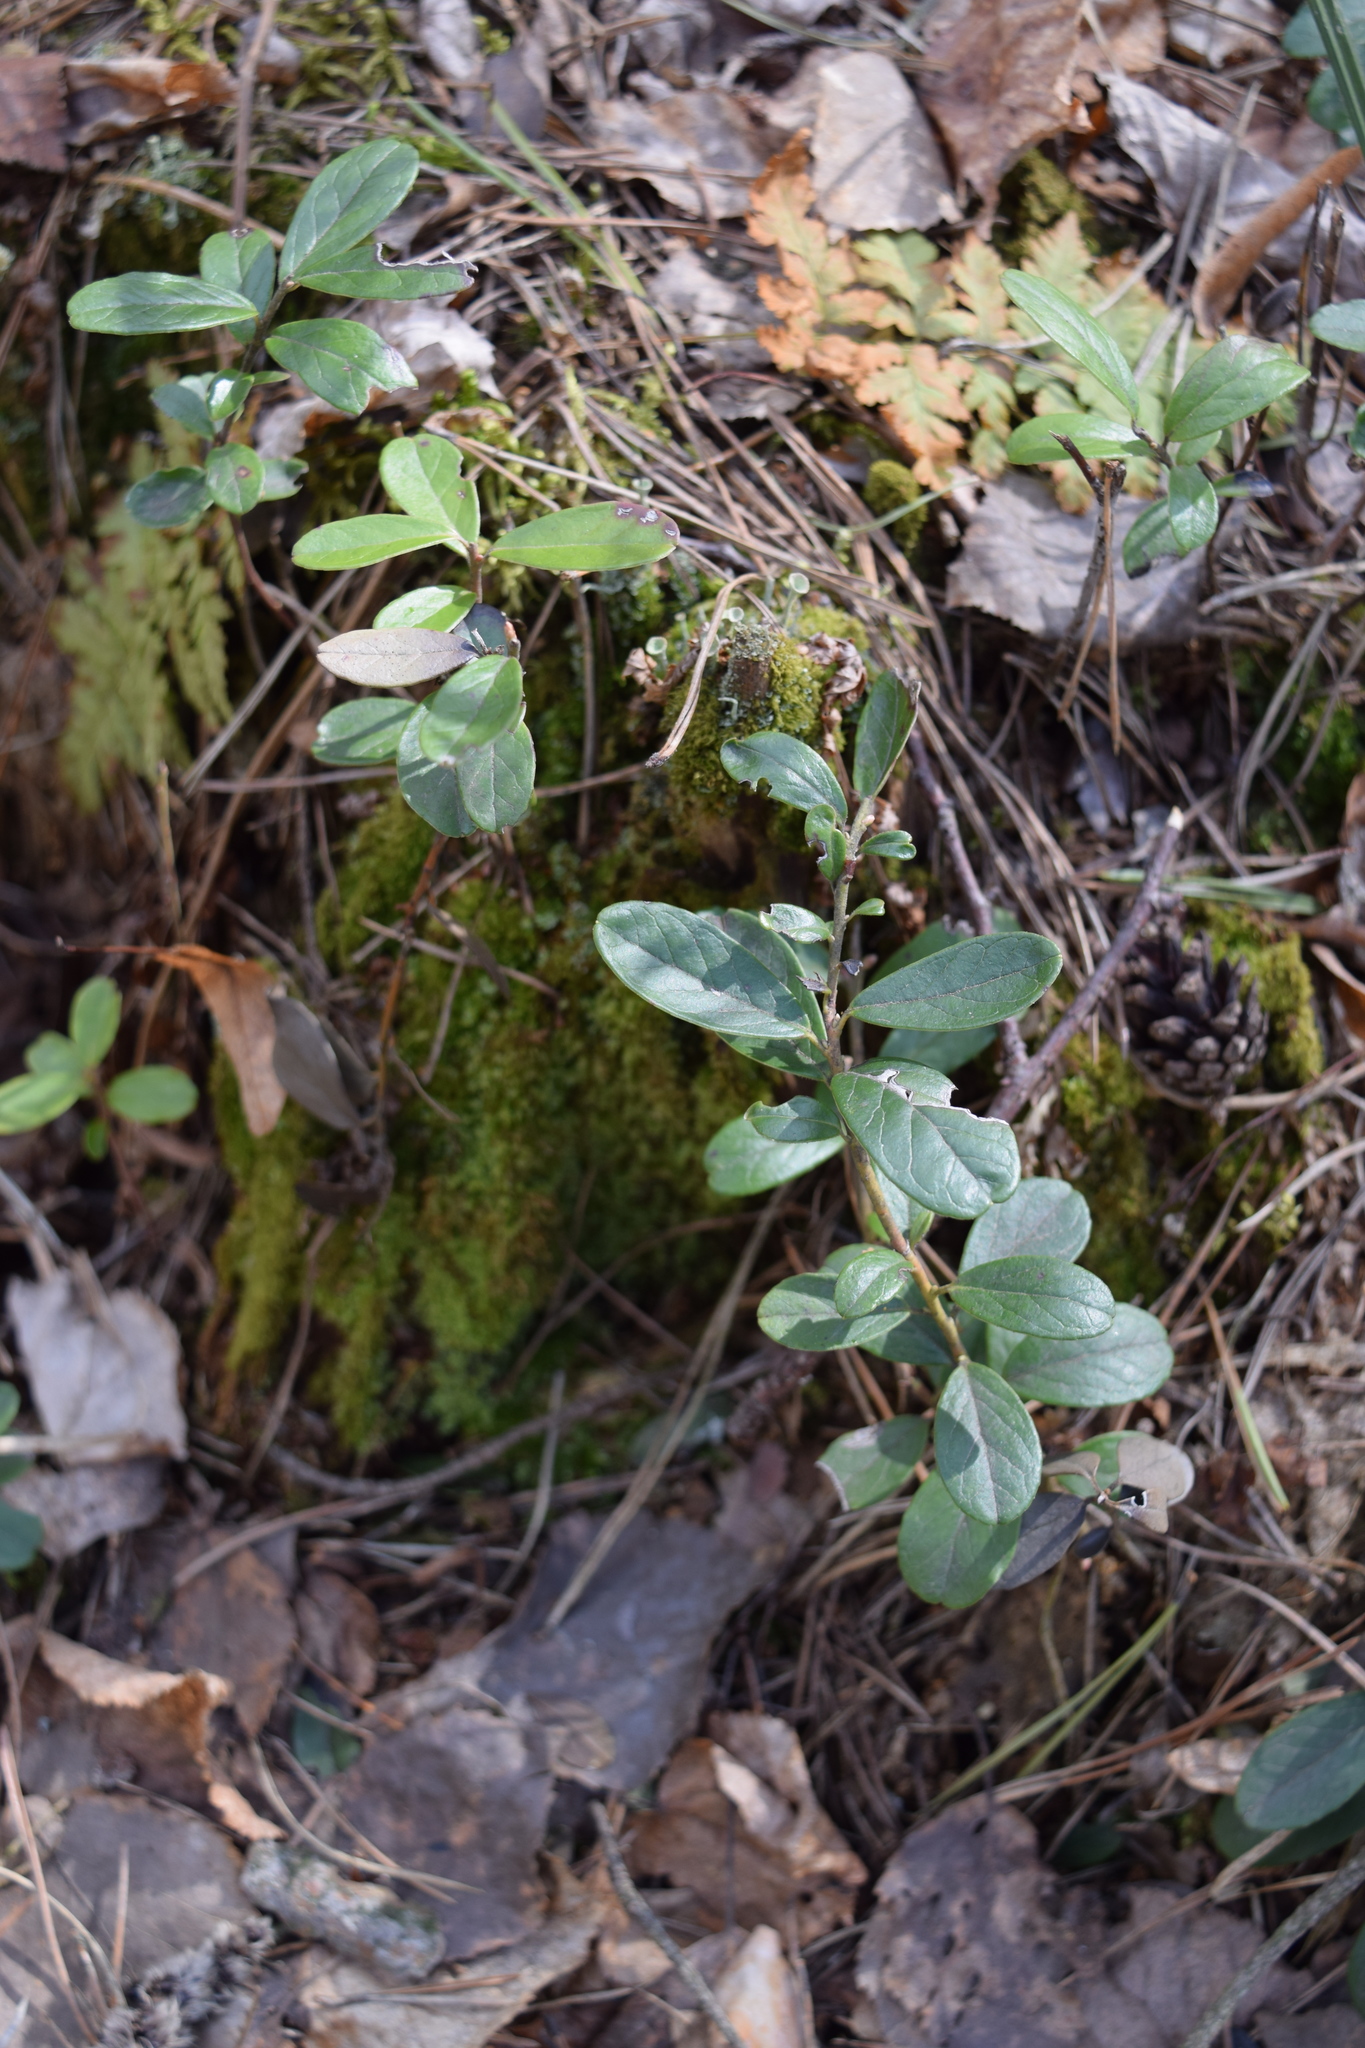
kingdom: Plantae
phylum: Tracheophyta
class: Magnoliopsida
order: Ericales
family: Ericaceae
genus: Vaccinium
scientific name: Vaccinium vitis-idaea
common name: Cowberry
